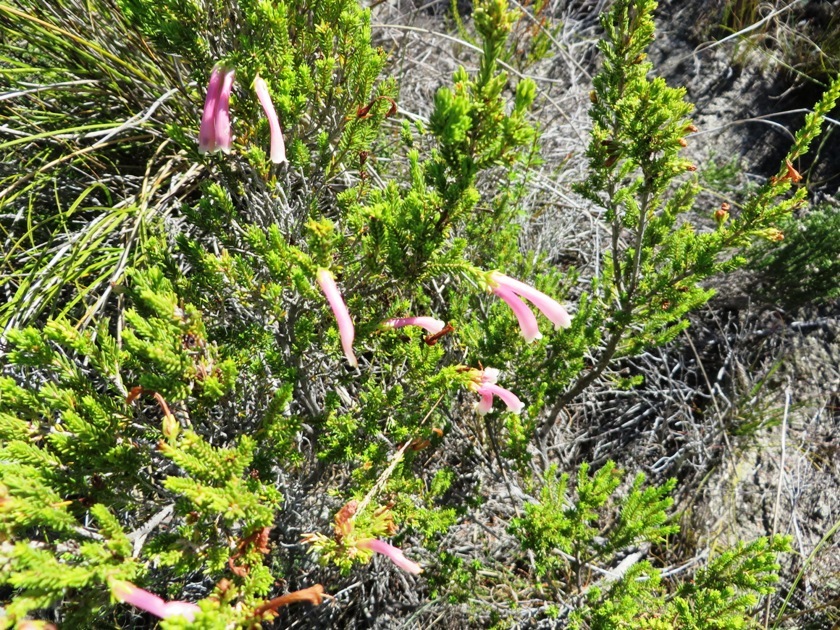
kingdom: Plantae
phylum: Tracheophyta
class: Magnoliopsida
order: Ericales
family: Ericaceae
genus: Erica
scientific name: Erica discolor
